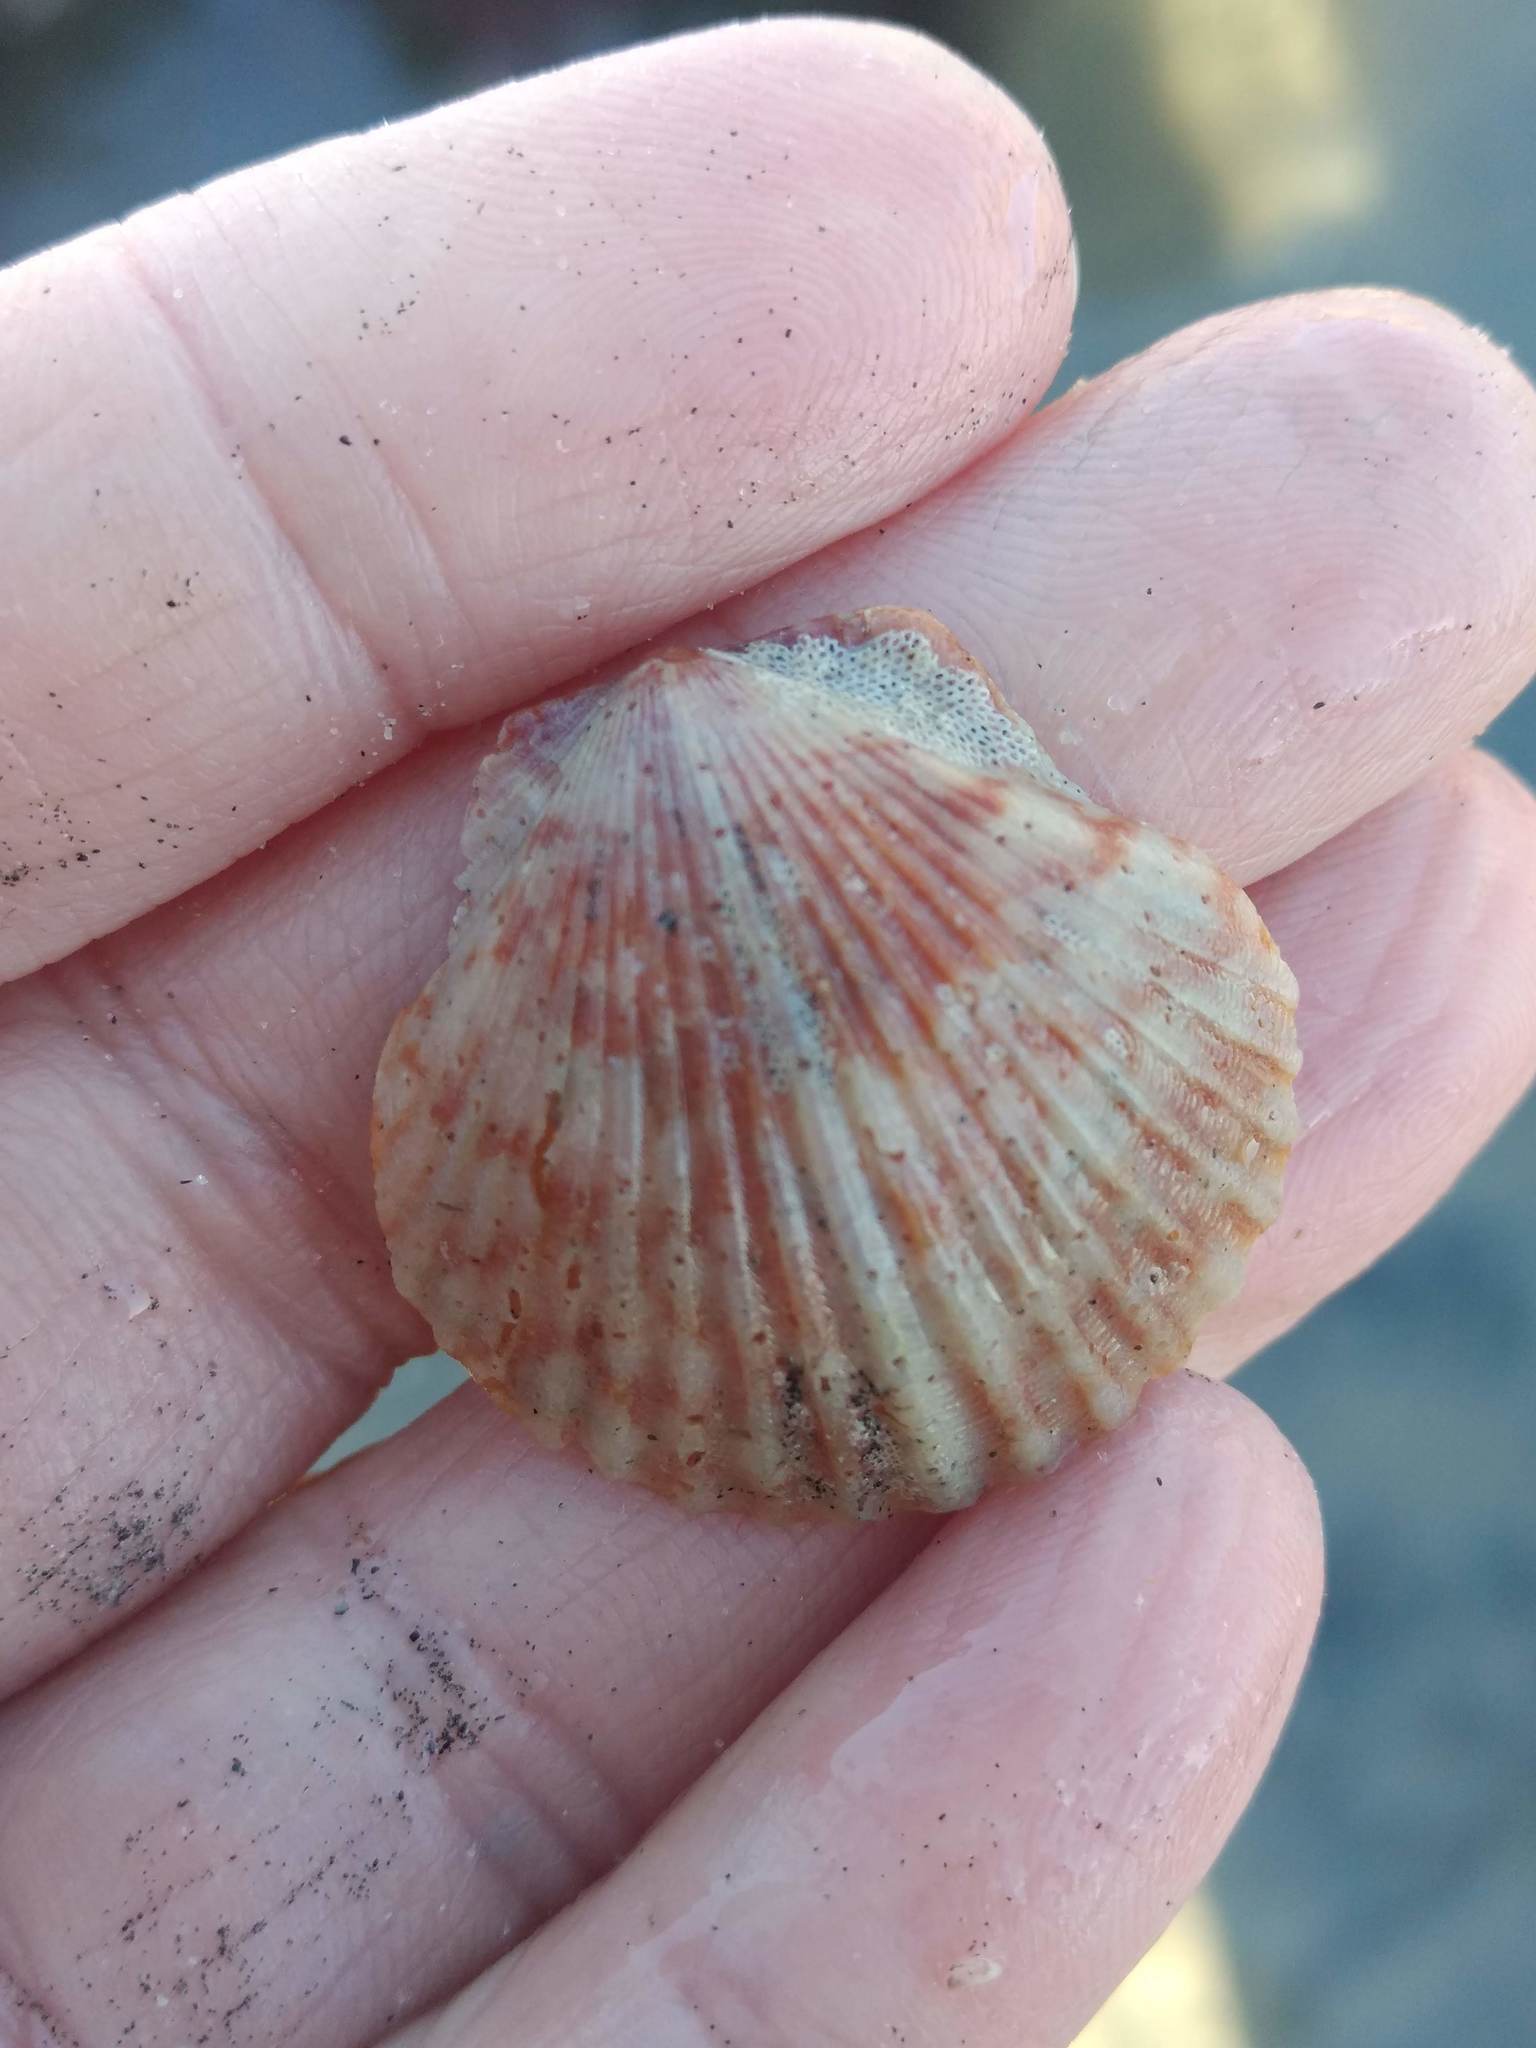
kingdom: Animalia
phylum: Mollusca
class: Bivalvia
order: Pectinida
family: Pectinidae
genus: Argopecten
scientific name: Argopecten ventricosus
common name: Catarina scallop
